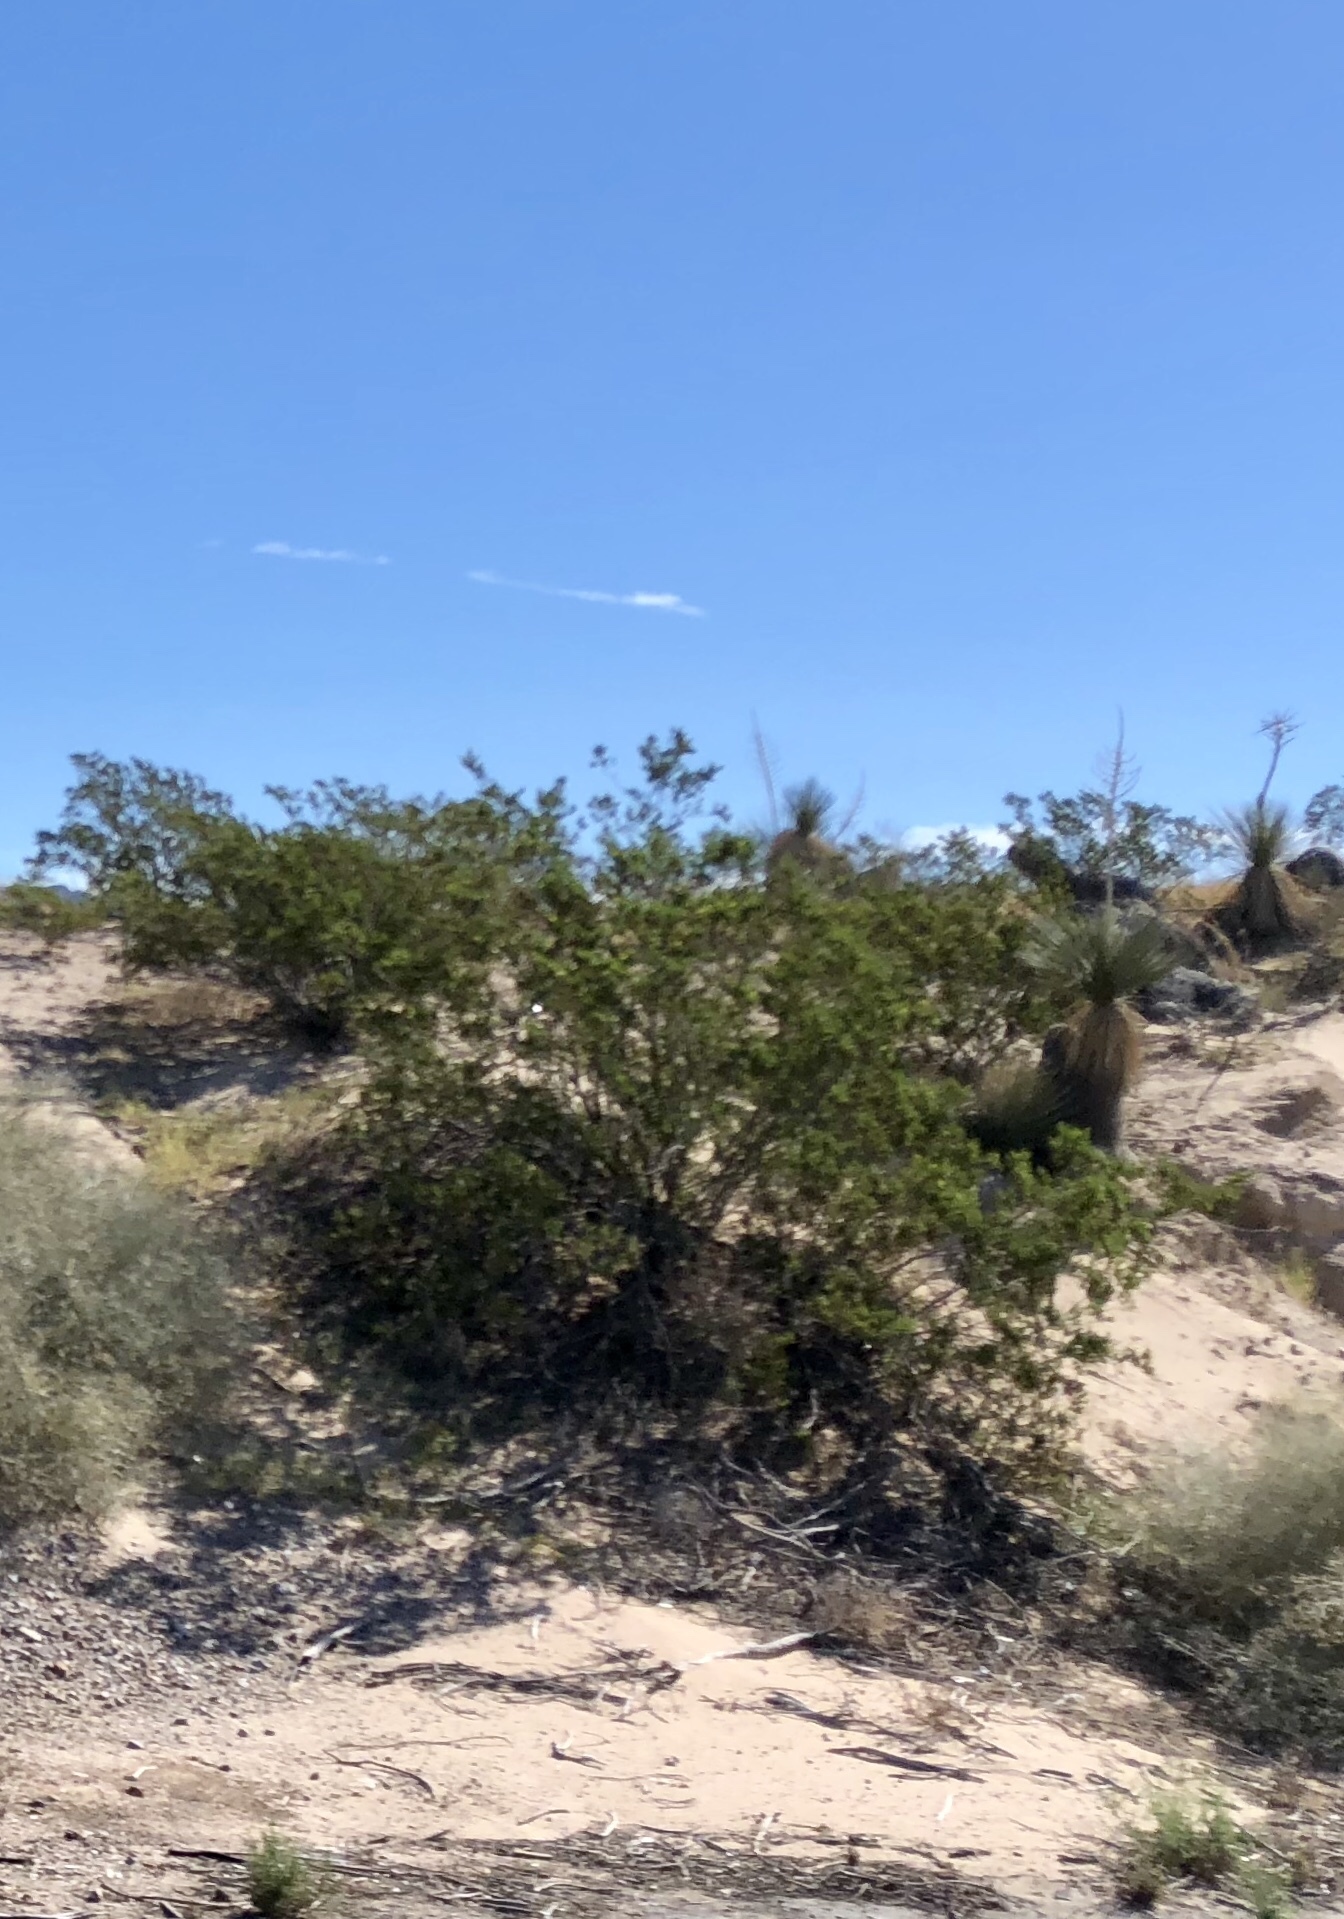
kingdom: Plantae
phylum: Tracheophyta
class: Magnoliopsida
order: Zygophyllales
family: Zygophyllaceae
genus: Larrea
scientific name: Larrea tridentata
